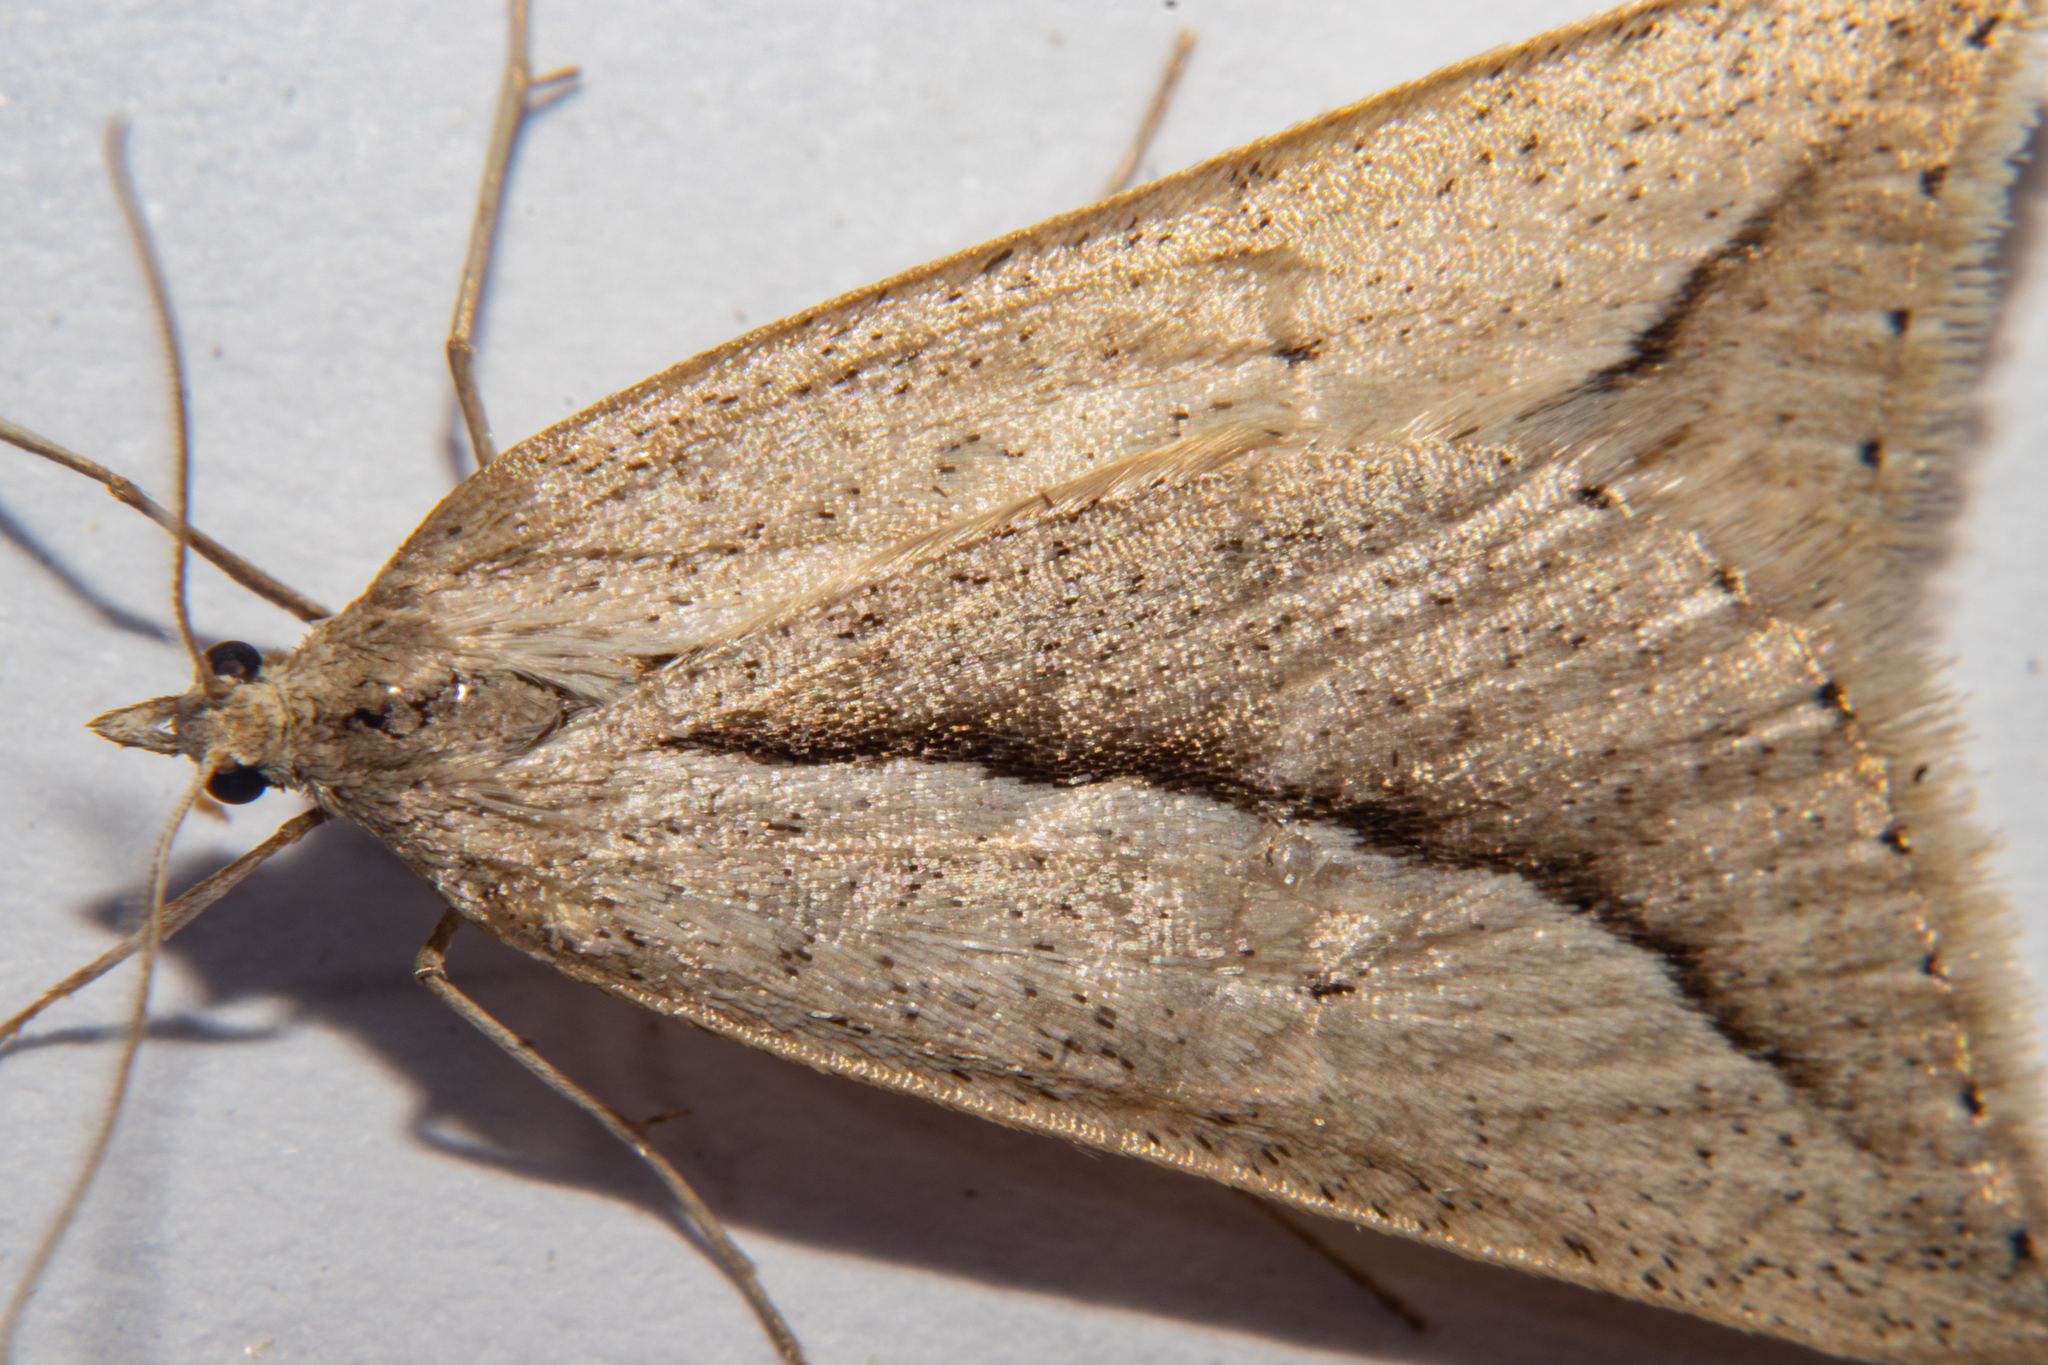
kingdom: Animalia
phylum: Arthropoda
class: Insecta
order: Lepidoptera
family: Geometridae
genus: Theoxena
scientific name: Theoxena scissaria
